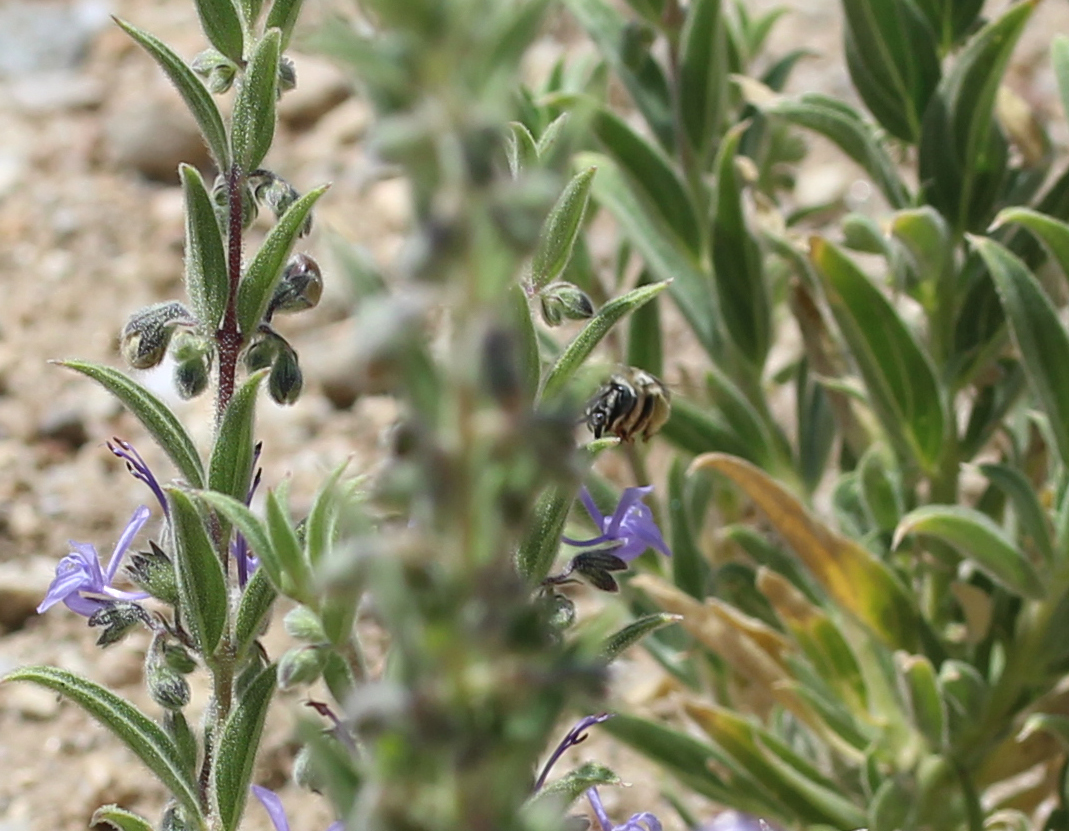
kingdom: Animalia
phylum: Arthropoda
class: Insecta
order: Hymenoptera
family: Apidae
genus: Anthophora
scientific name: Anthophora urbana
